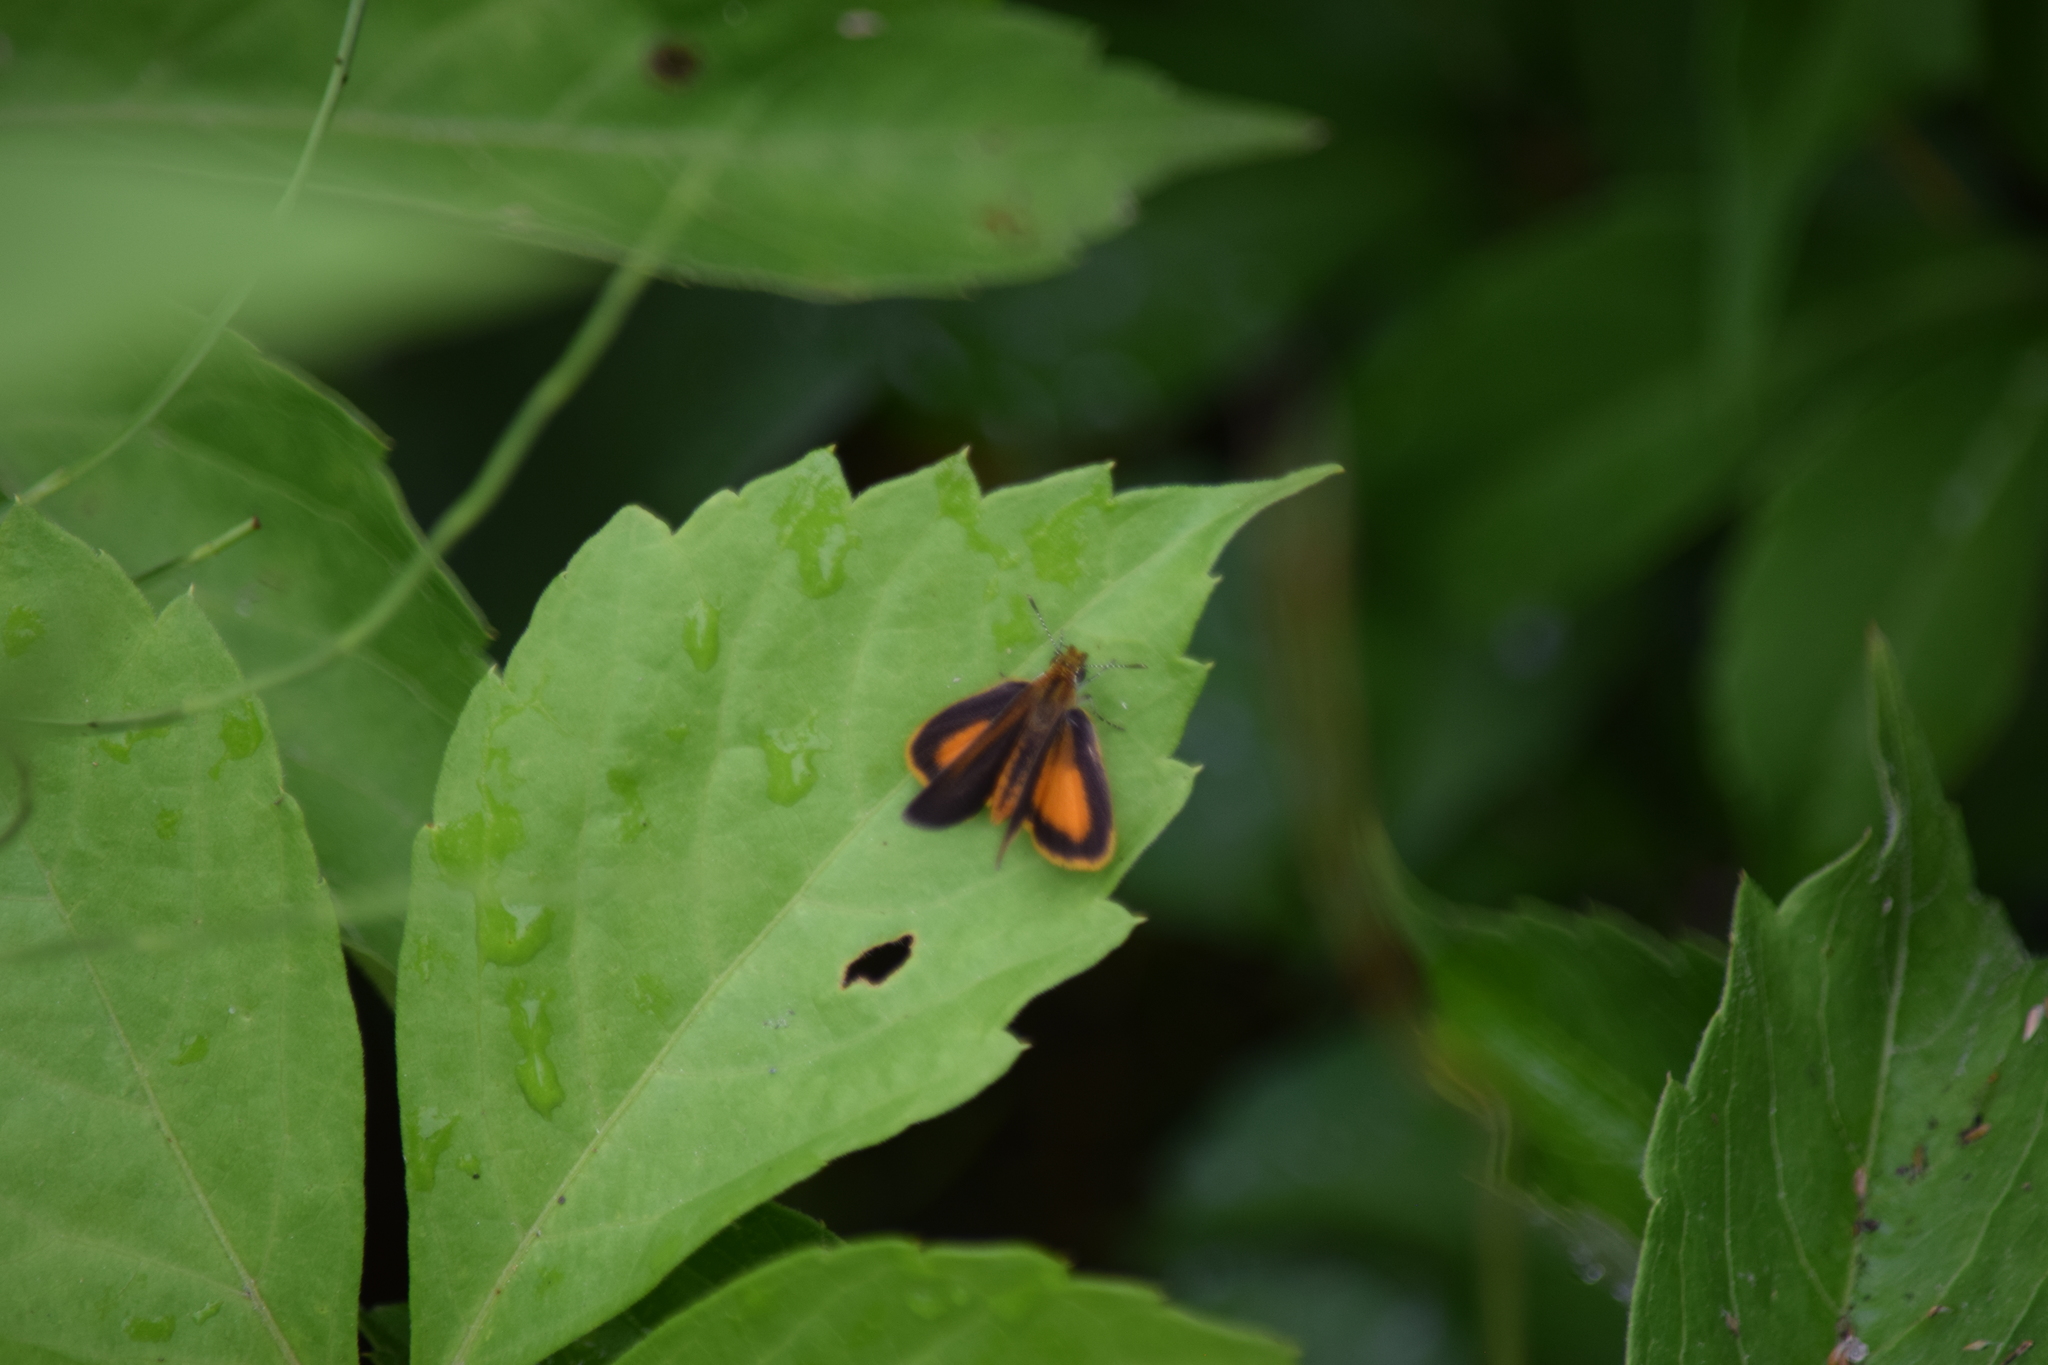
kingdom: Animalia
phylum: Arthropoda
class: Insecta
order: Lepidoptera
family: Hesperiidae
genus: Ancyloxypha
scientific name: Ancyloxypha numitor
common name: Least skipper
